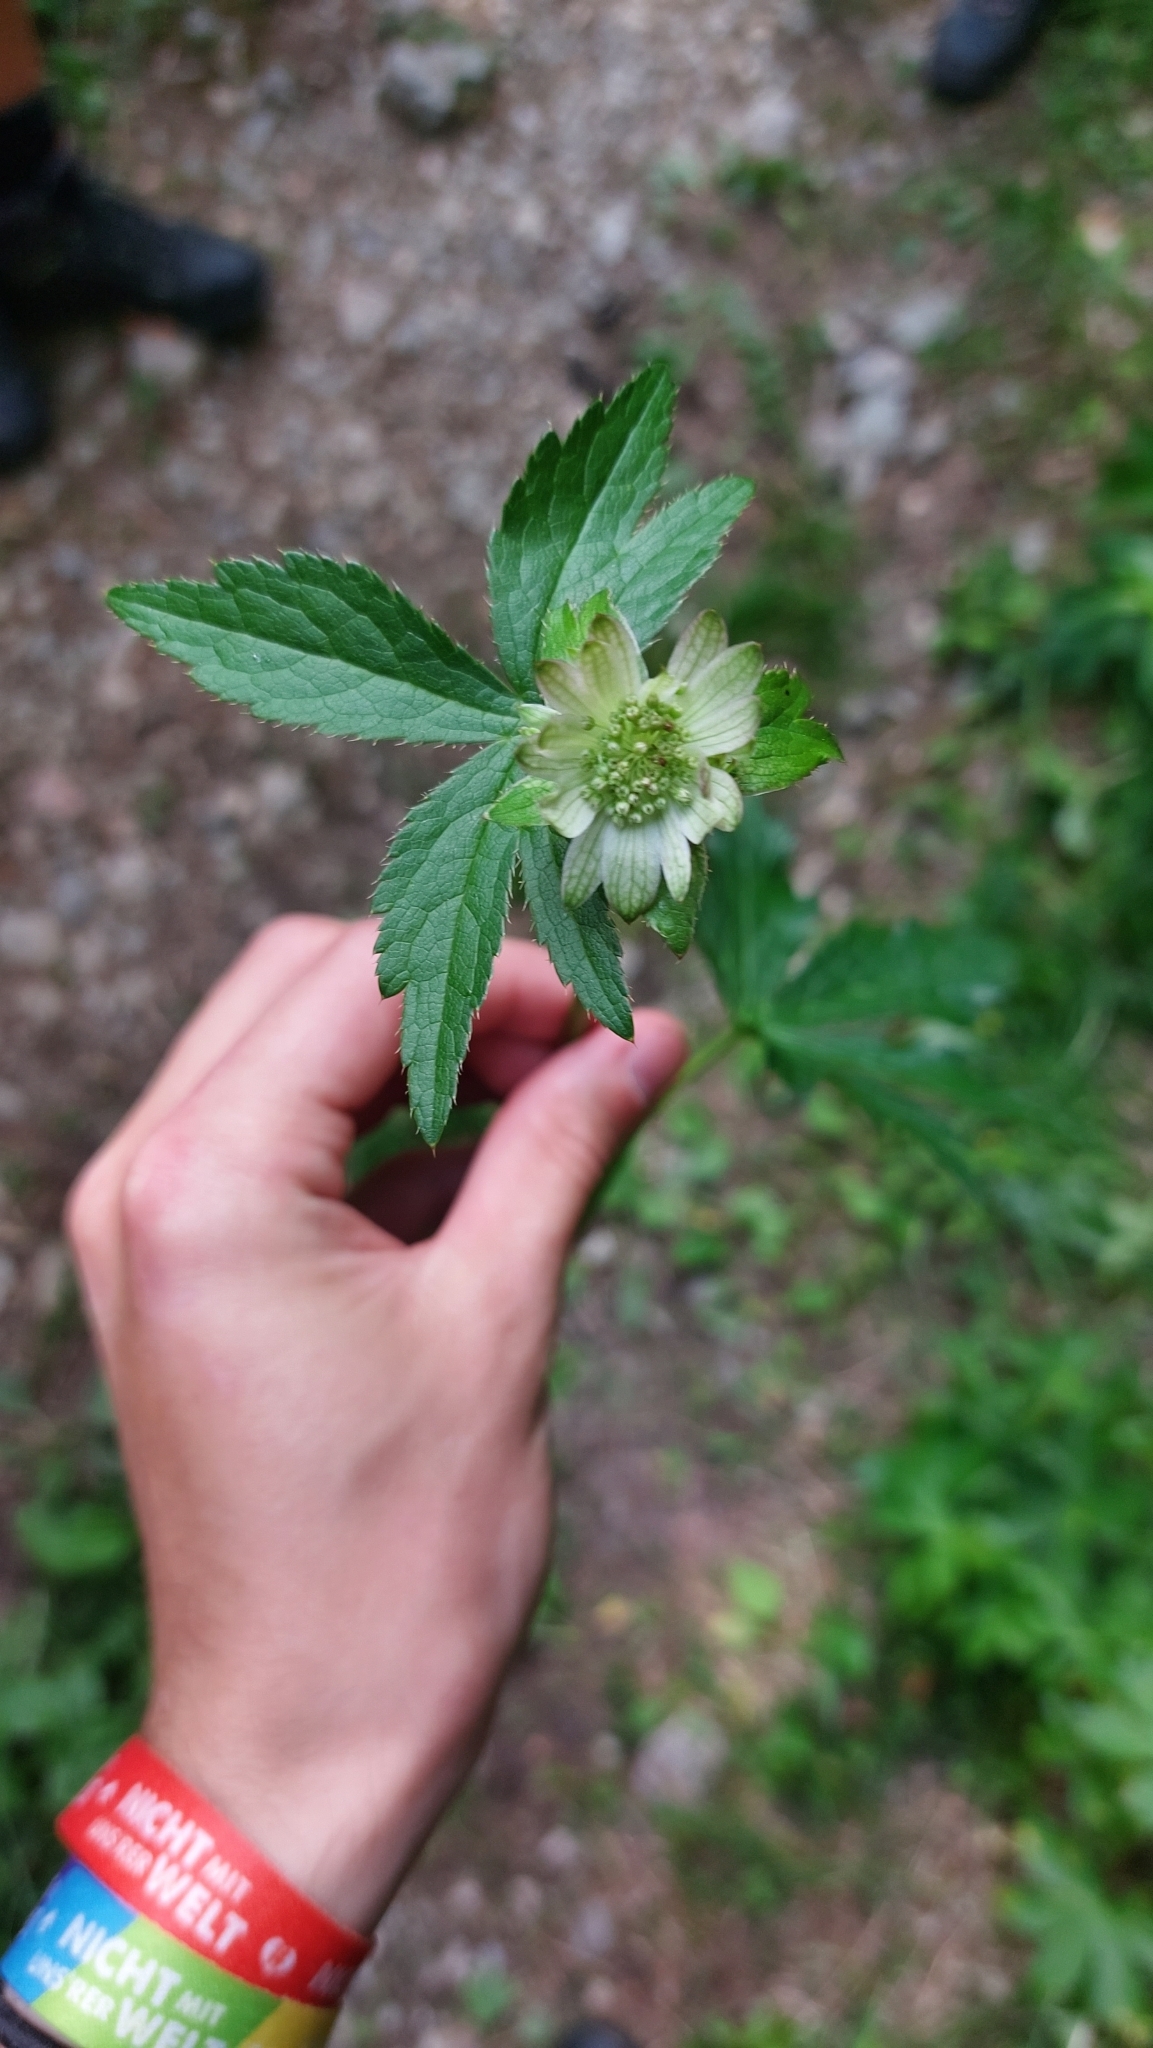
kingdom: Plantae
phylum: Tracheophyta
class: Magnoliopsida
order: Apiales
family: Apiaceae
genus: Astrantia
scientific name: Astrantia major
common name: Greater masterwort
